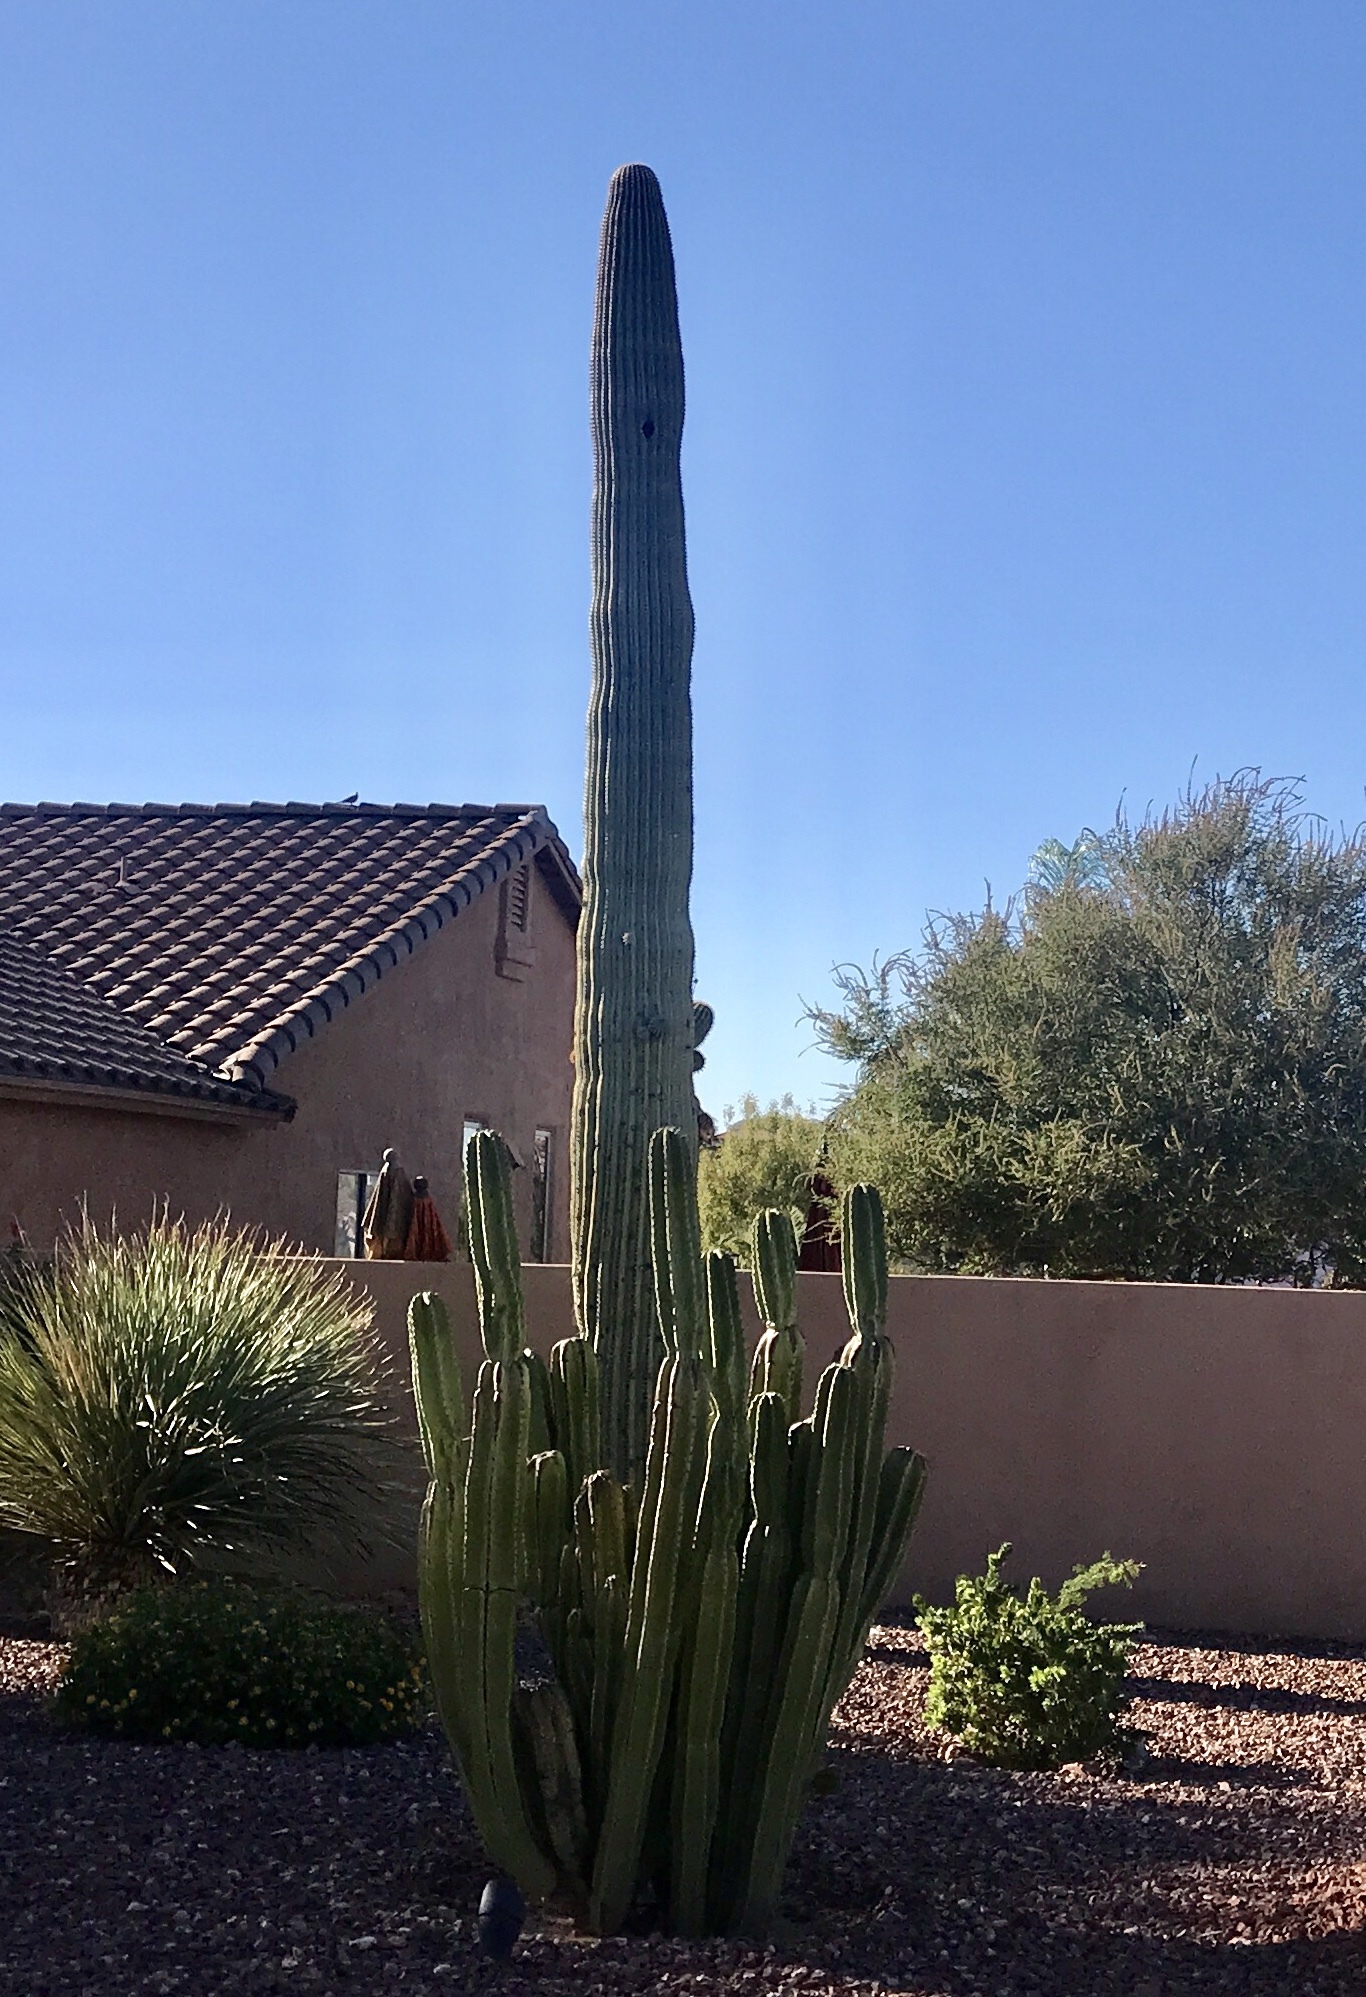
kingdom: Plantae
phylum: Tracheophyta
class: Magnoliopsida
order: Caryophyllales
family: Cactaceae
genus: Carnegiea
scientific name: Carnegiea gigantea
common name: Saguaro
